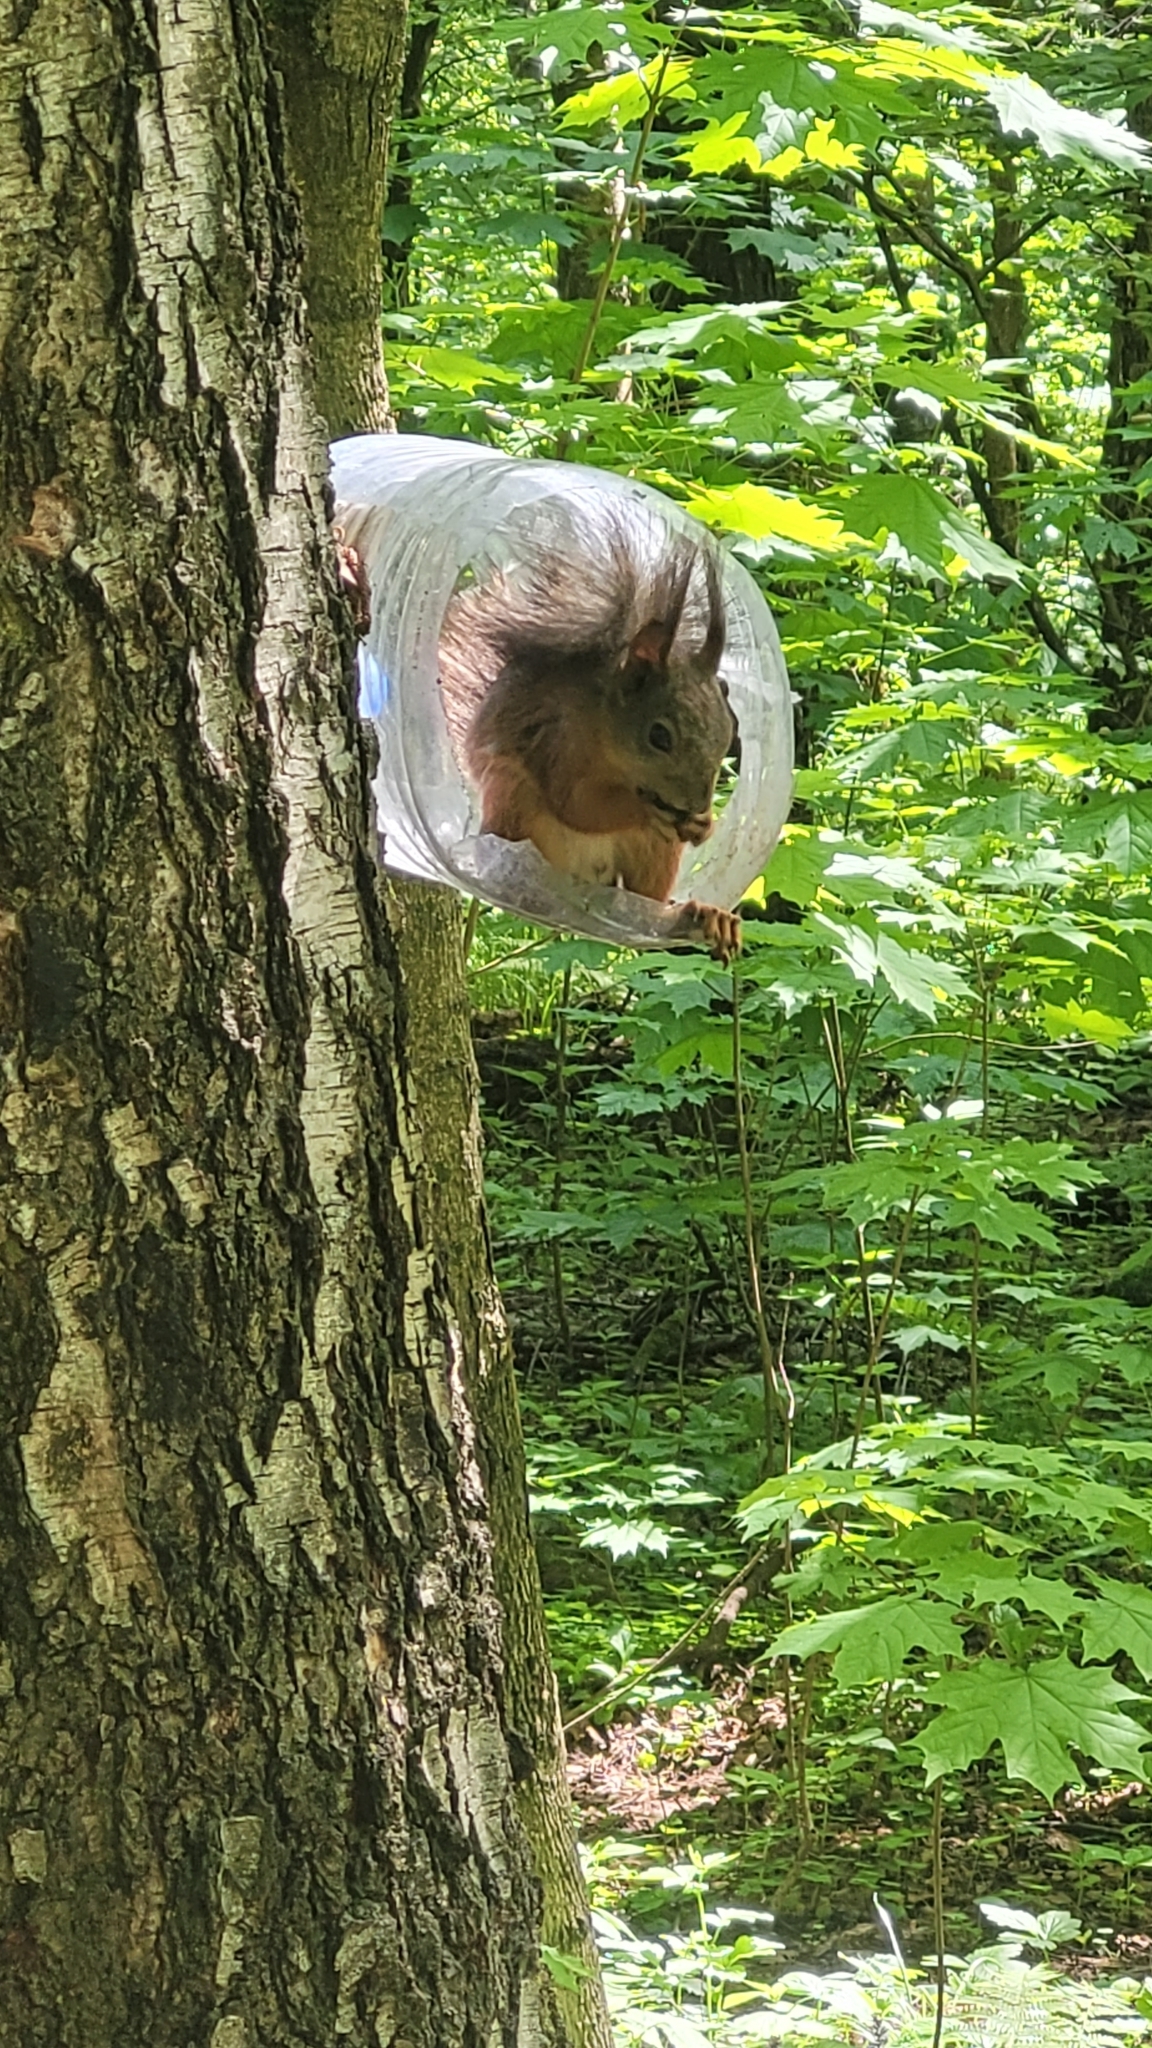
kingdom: Animalia
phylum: Chordata
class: Mammalia
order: Rodentia
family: Sciuridae
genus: Sciurus
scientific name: Sciurus vulgaris
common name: Eurasian red squirrel
